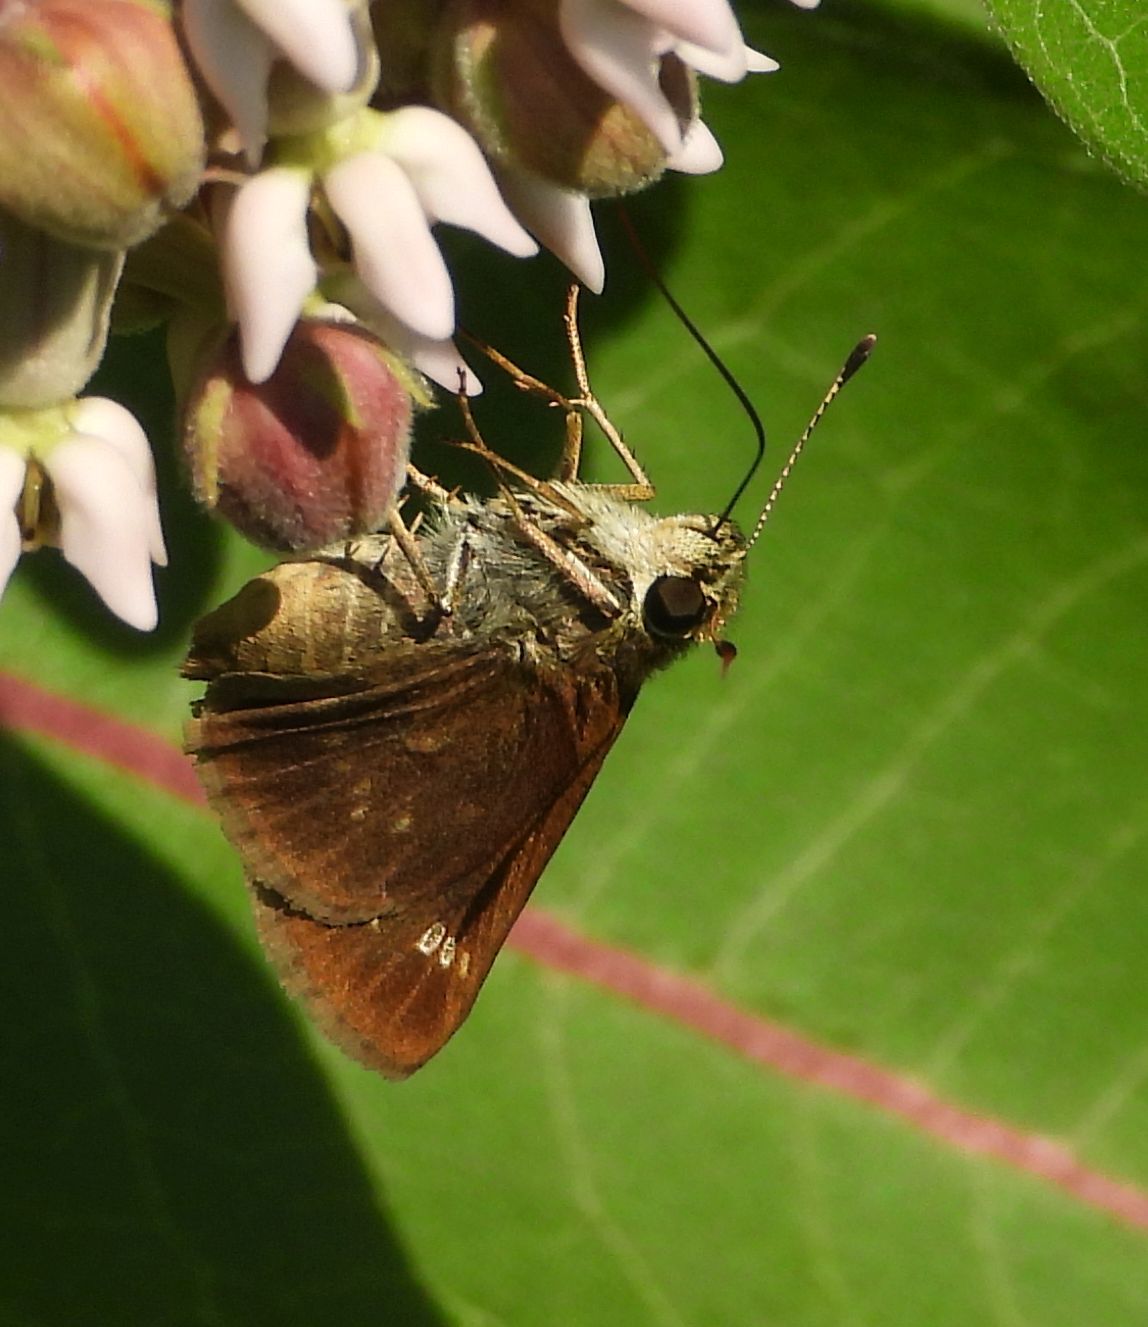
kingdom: Animalia
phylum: Arthropoda
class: Insecta
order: Lepidoptera
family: Hesperiidae
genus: Vernia
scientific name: Vernia verna
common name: Little glassywing
